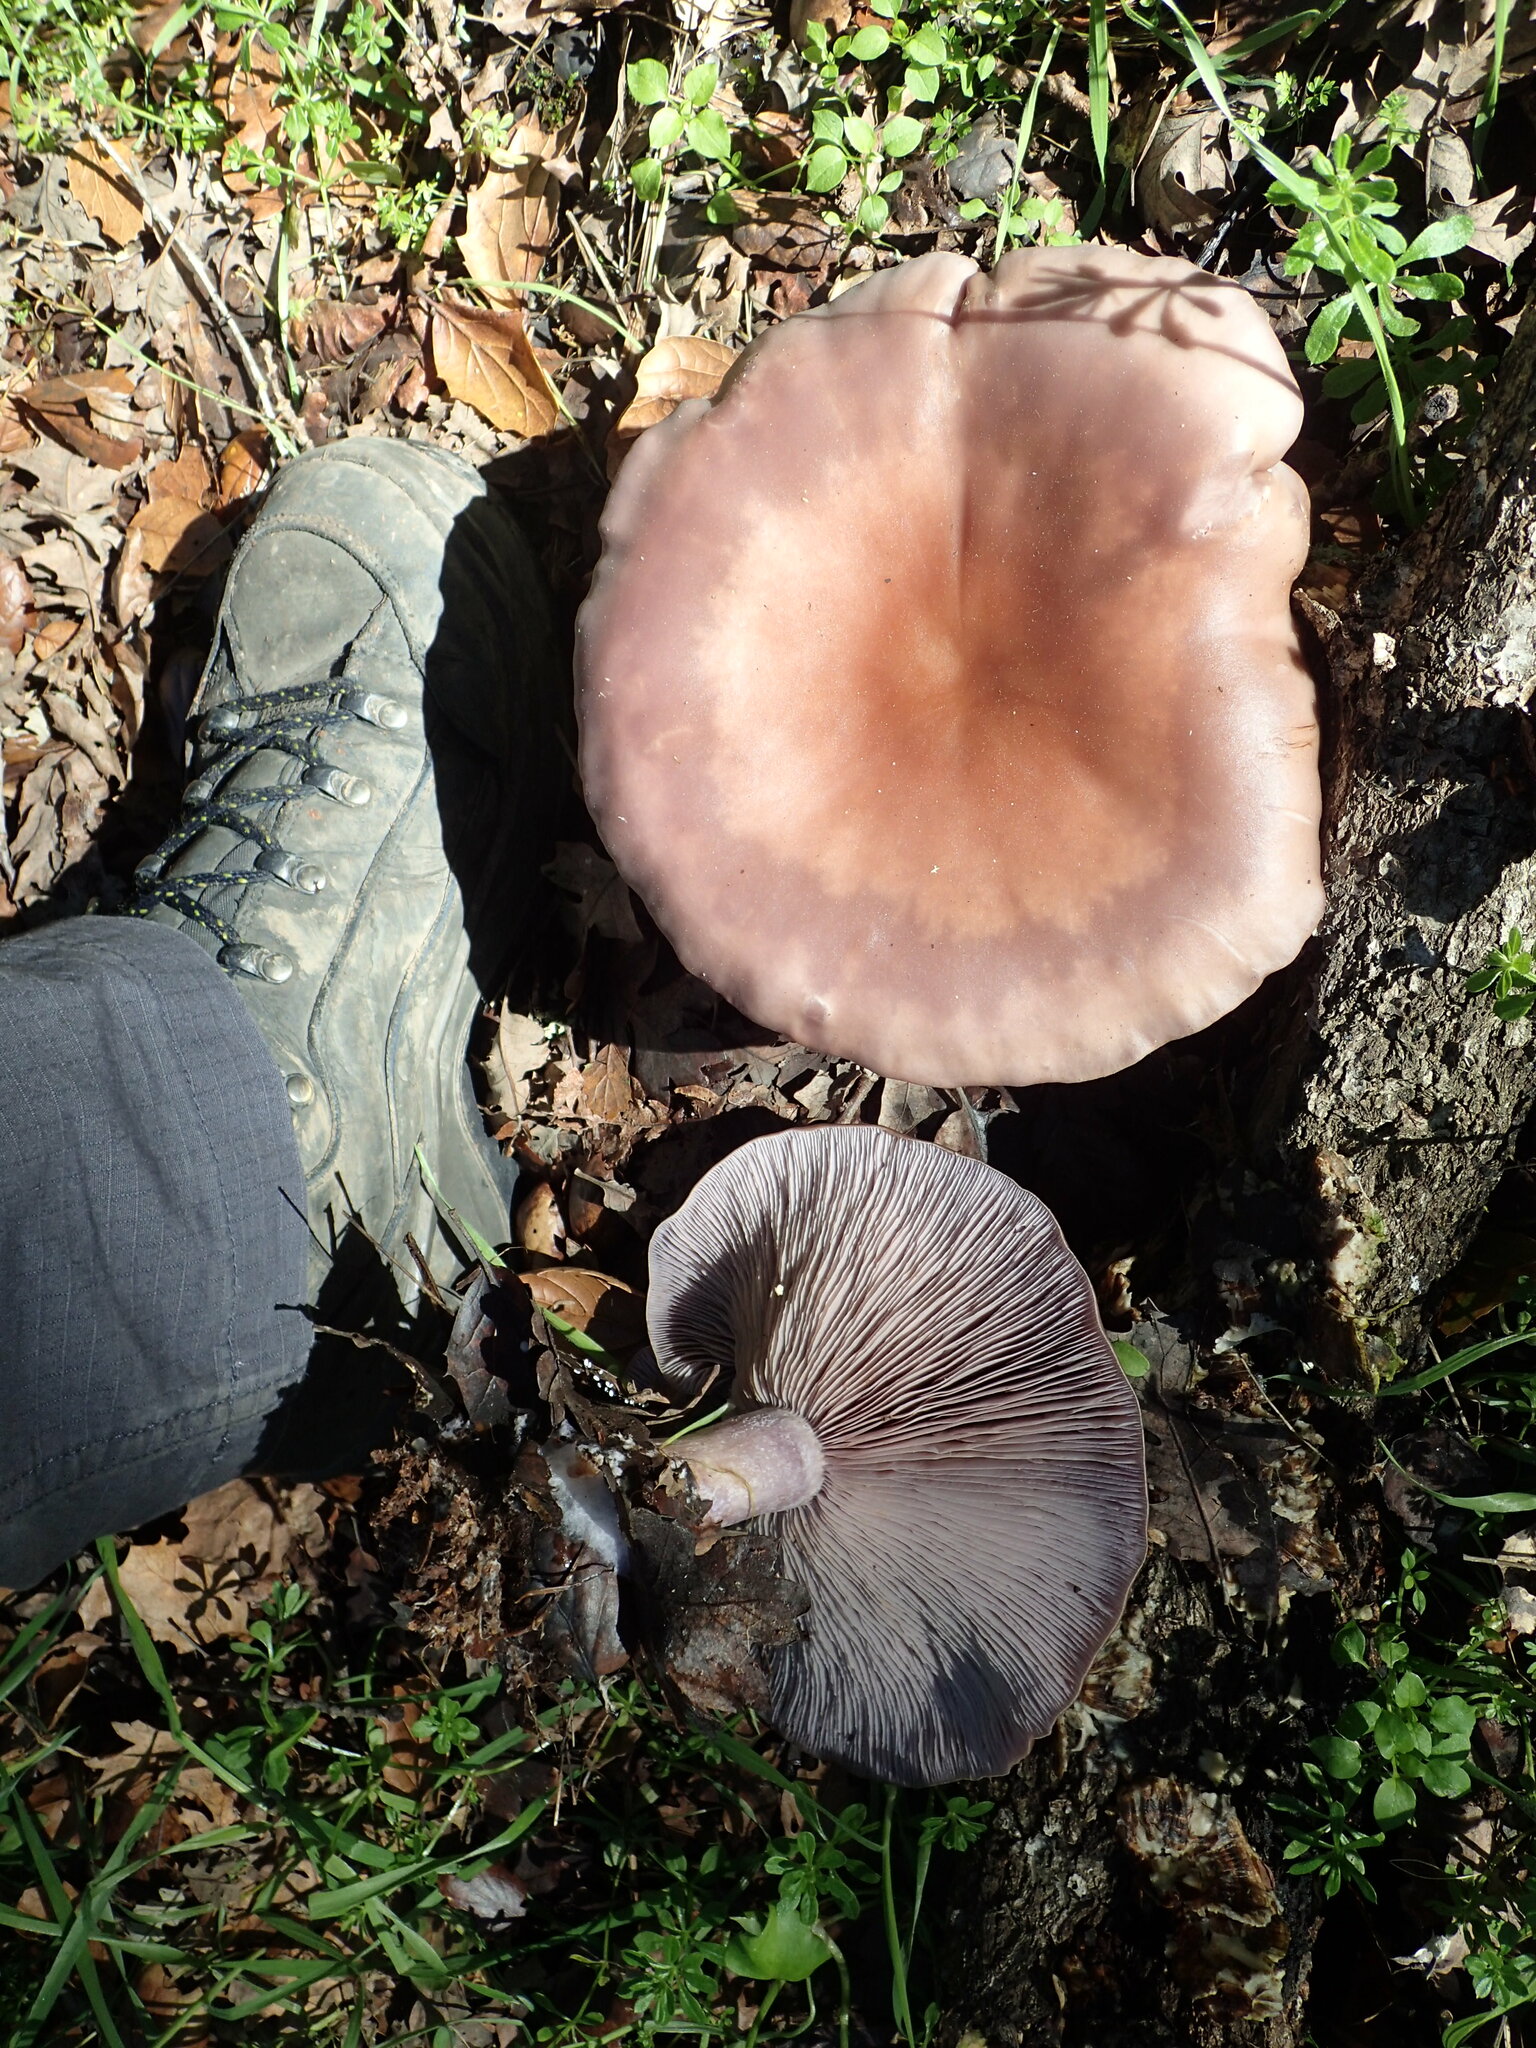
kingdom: Fungi
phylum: Basidiomycota
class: Agaricomycetes
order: Agaricales
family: Tricholomataceae
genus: Collybia
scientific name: Collybia
